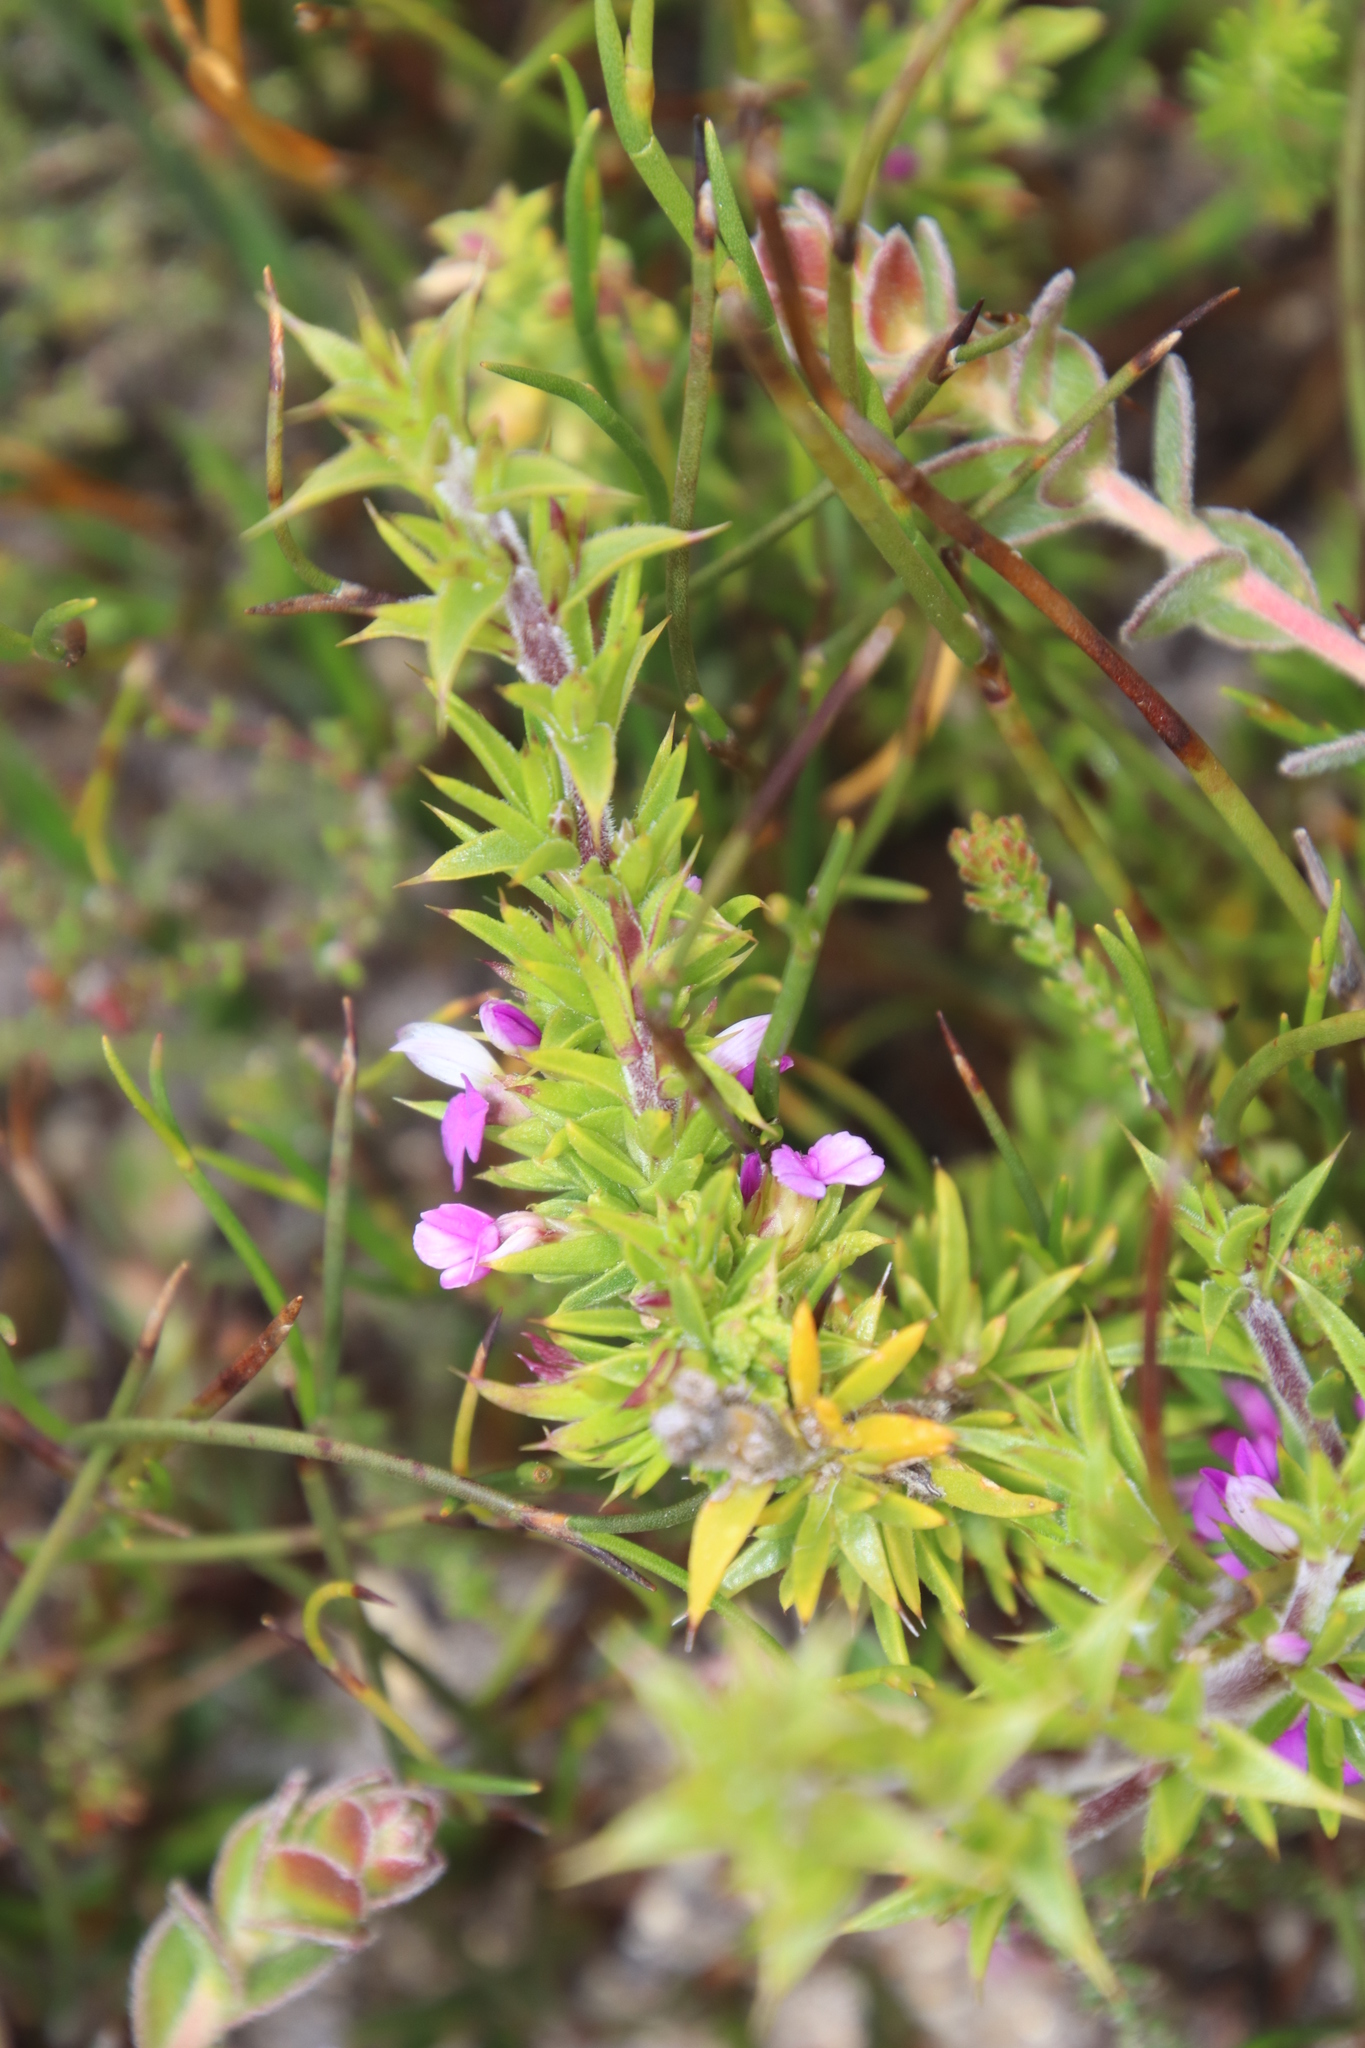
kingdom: Plantae
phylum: Tracheophyta
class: Magnoliopsida
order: Fabales
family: Polygalaceae
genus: Muraltia
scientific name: Muraltia heisteria
